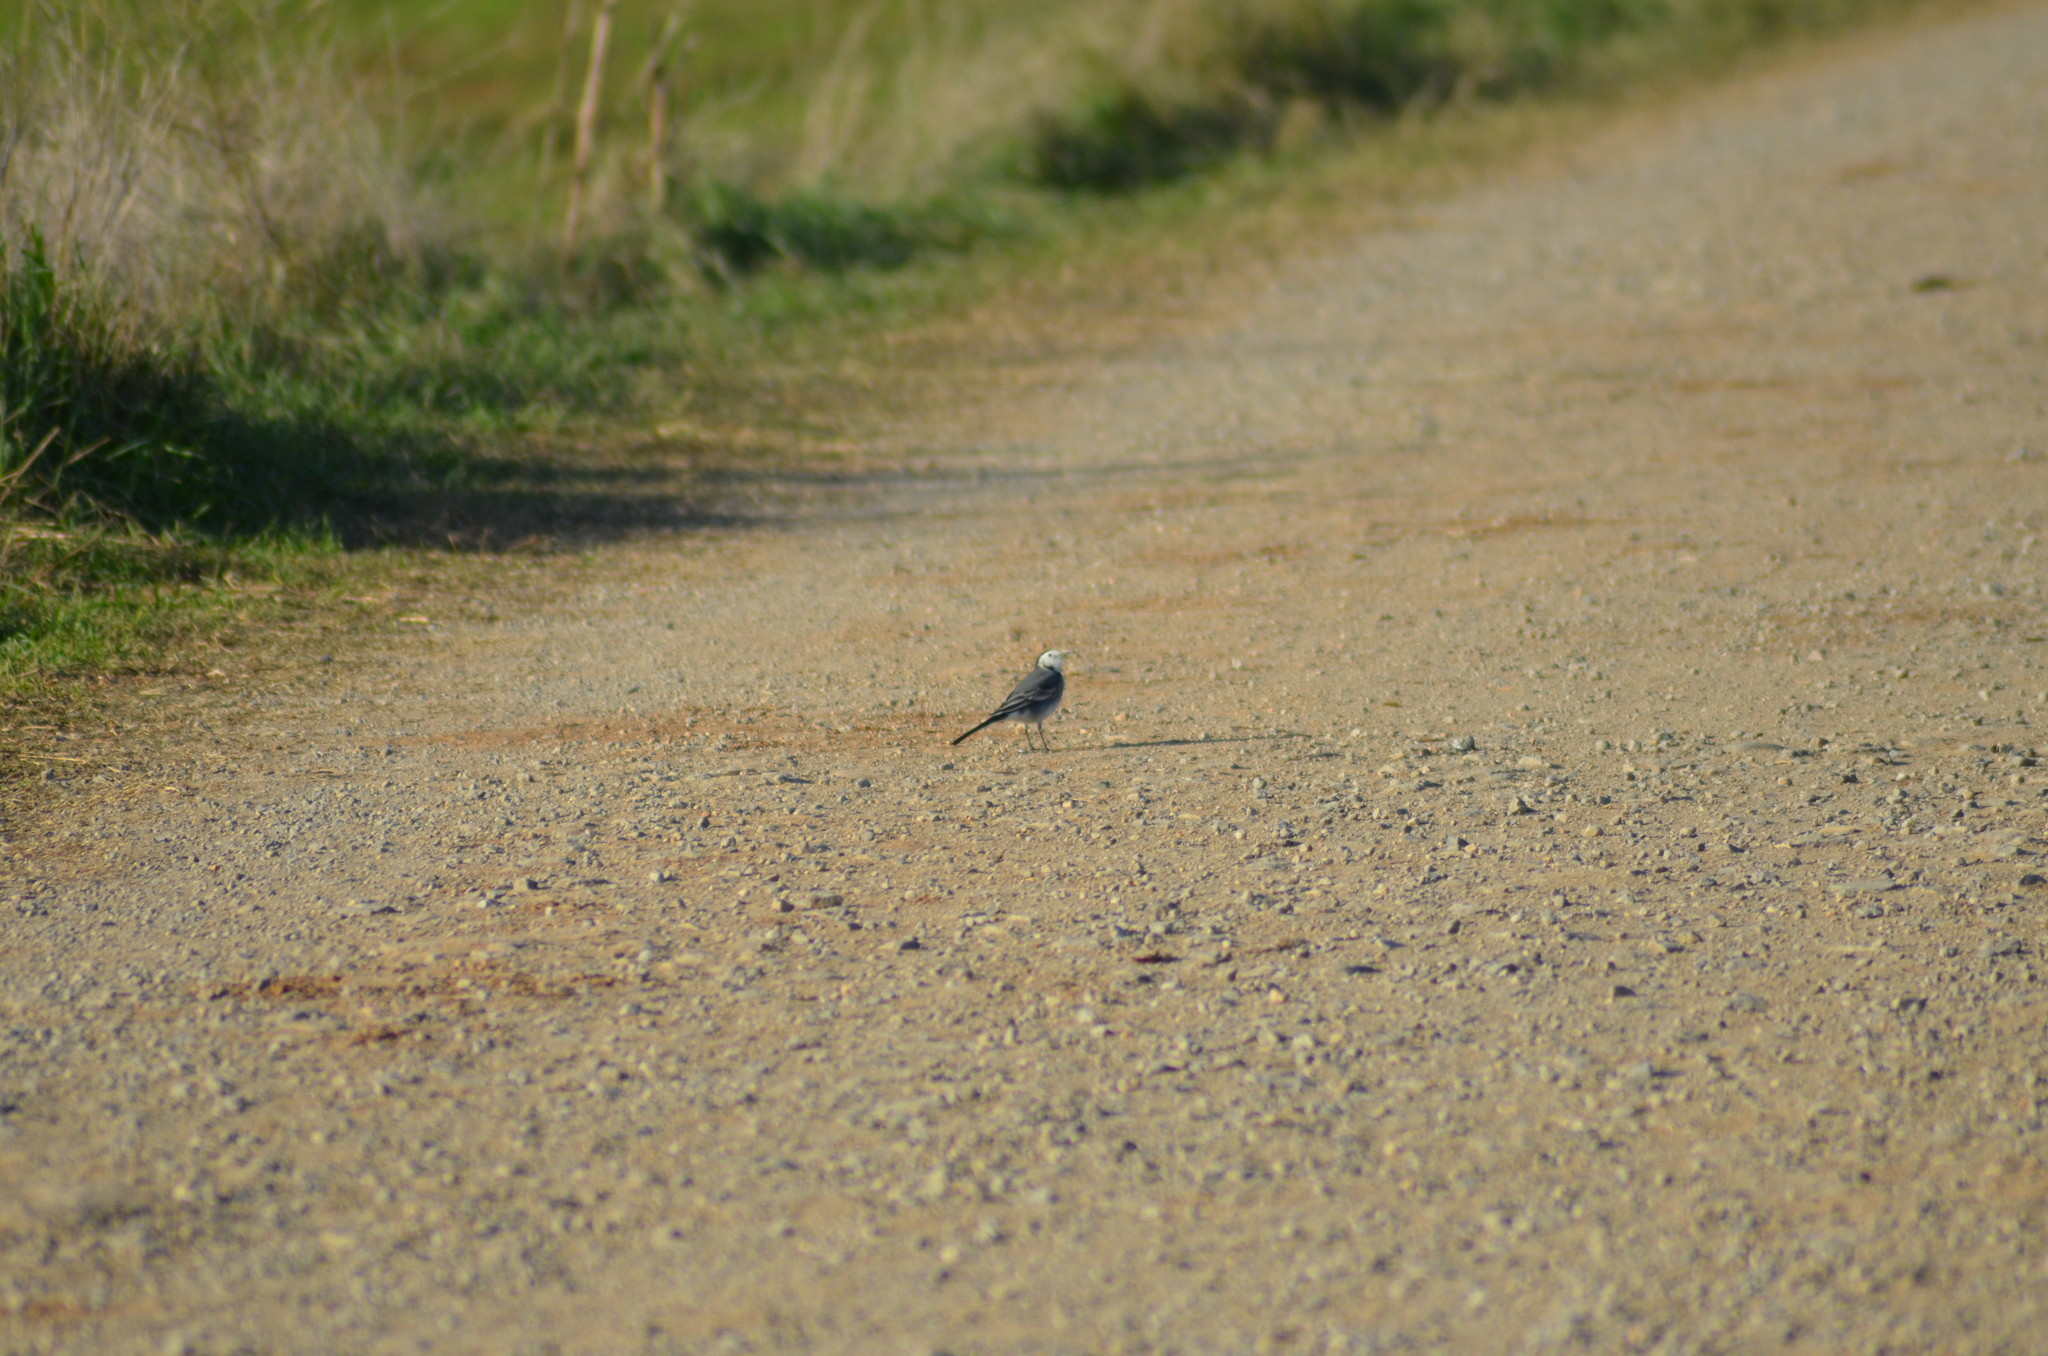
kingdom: Animalia
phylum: Chordata
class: Aves
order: Passeriformes
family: Motacillidae
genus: Motacilla
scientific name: Motacilla alba
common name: White wagtail
